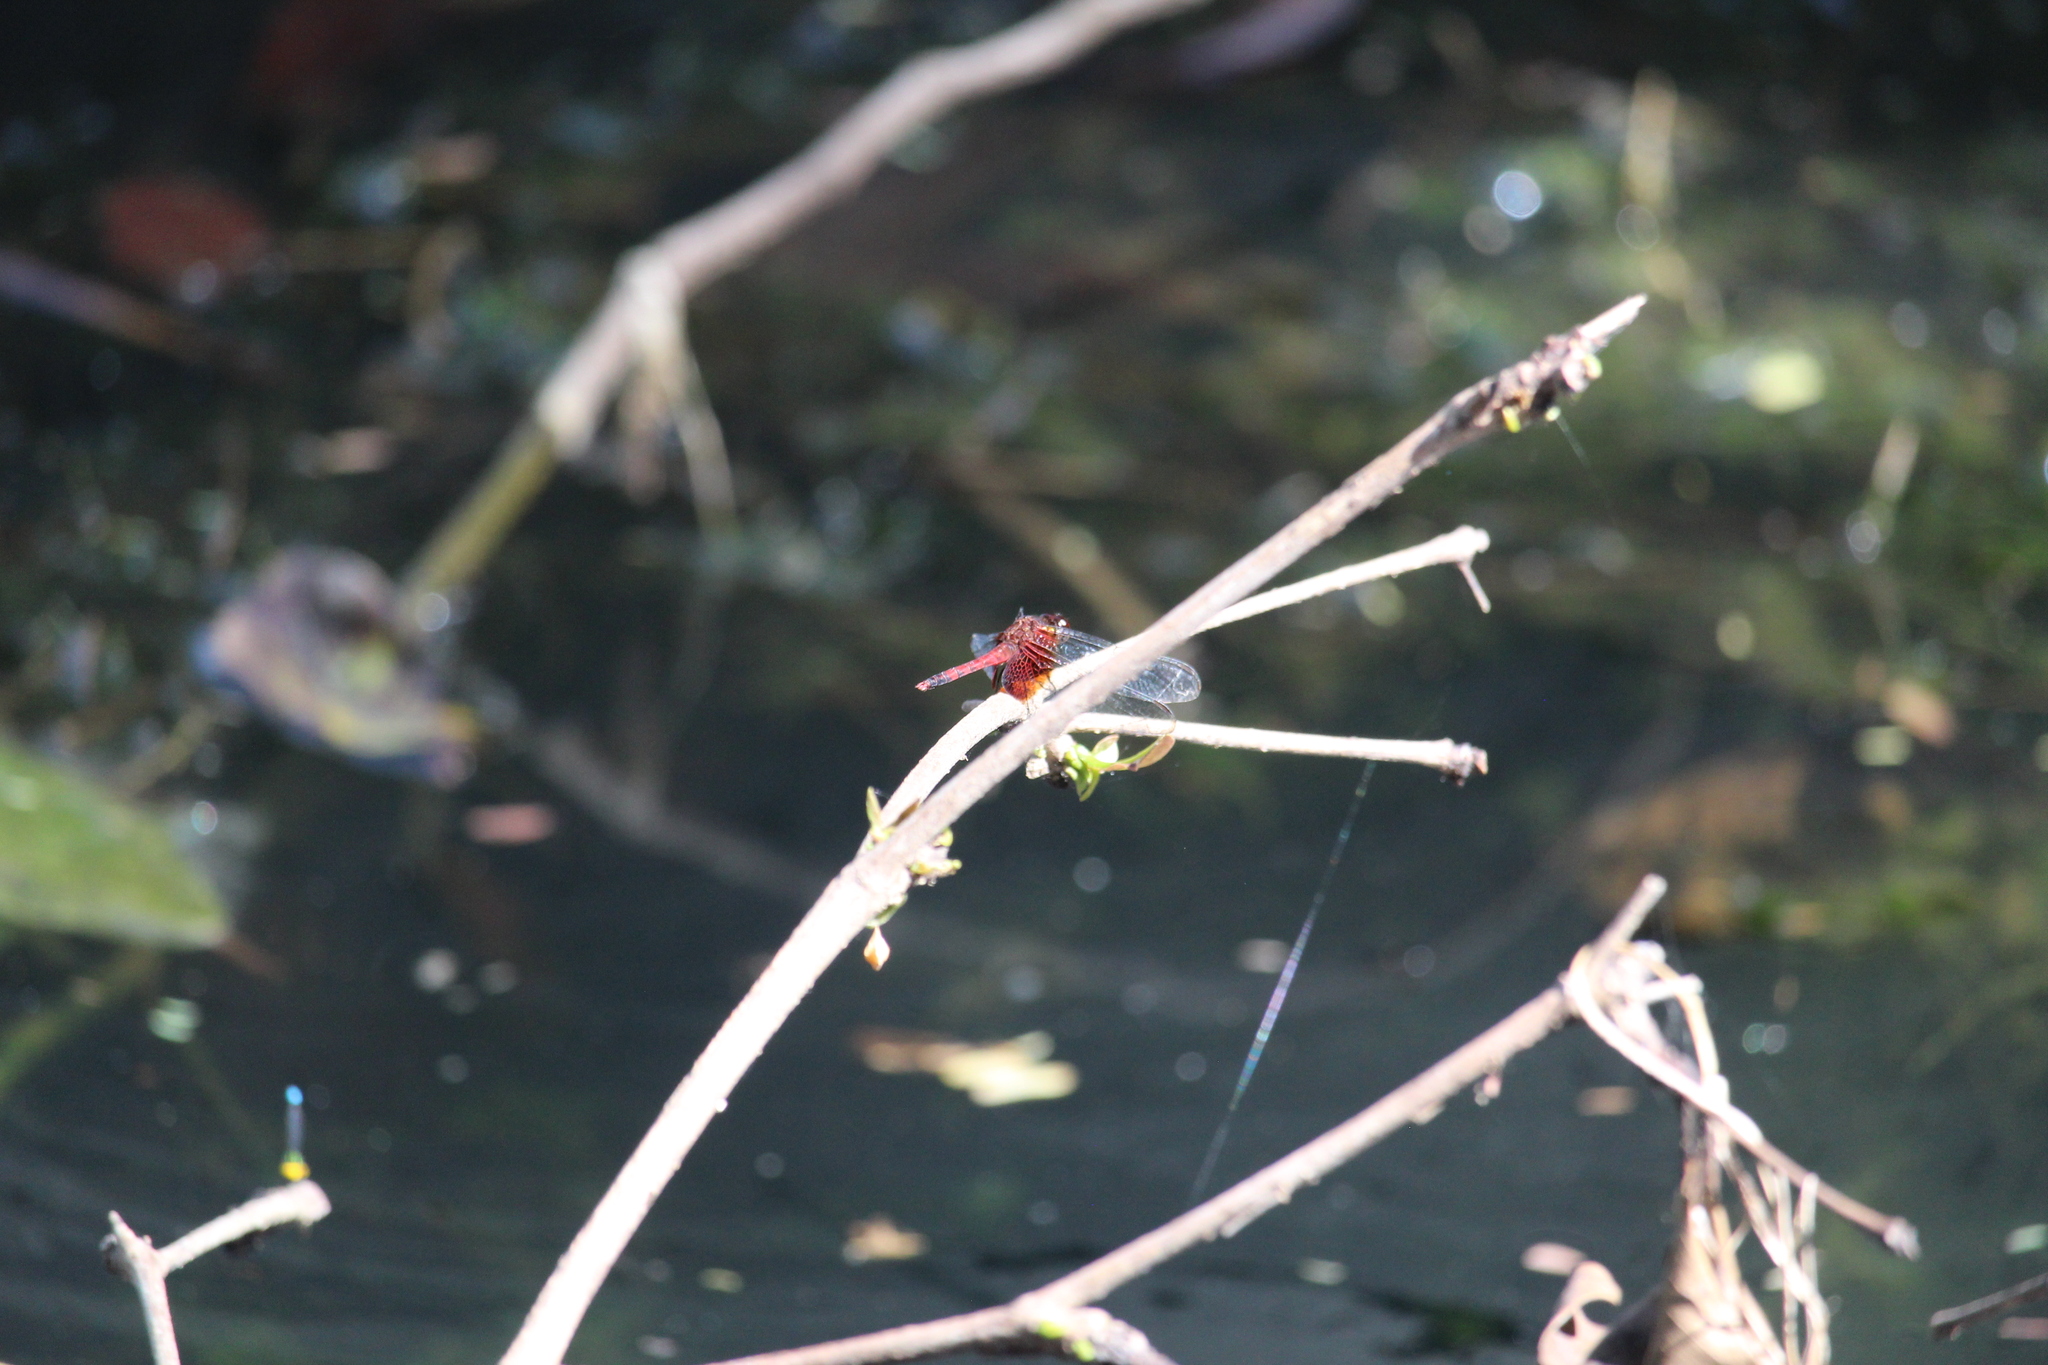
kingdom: Animalia
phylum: Arthropoda
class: Insecta
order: Odonata
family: Libellulidae
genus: Erythrodiplax
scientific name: Erythrodiplax fervida
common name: Red-mantled dragonlet
